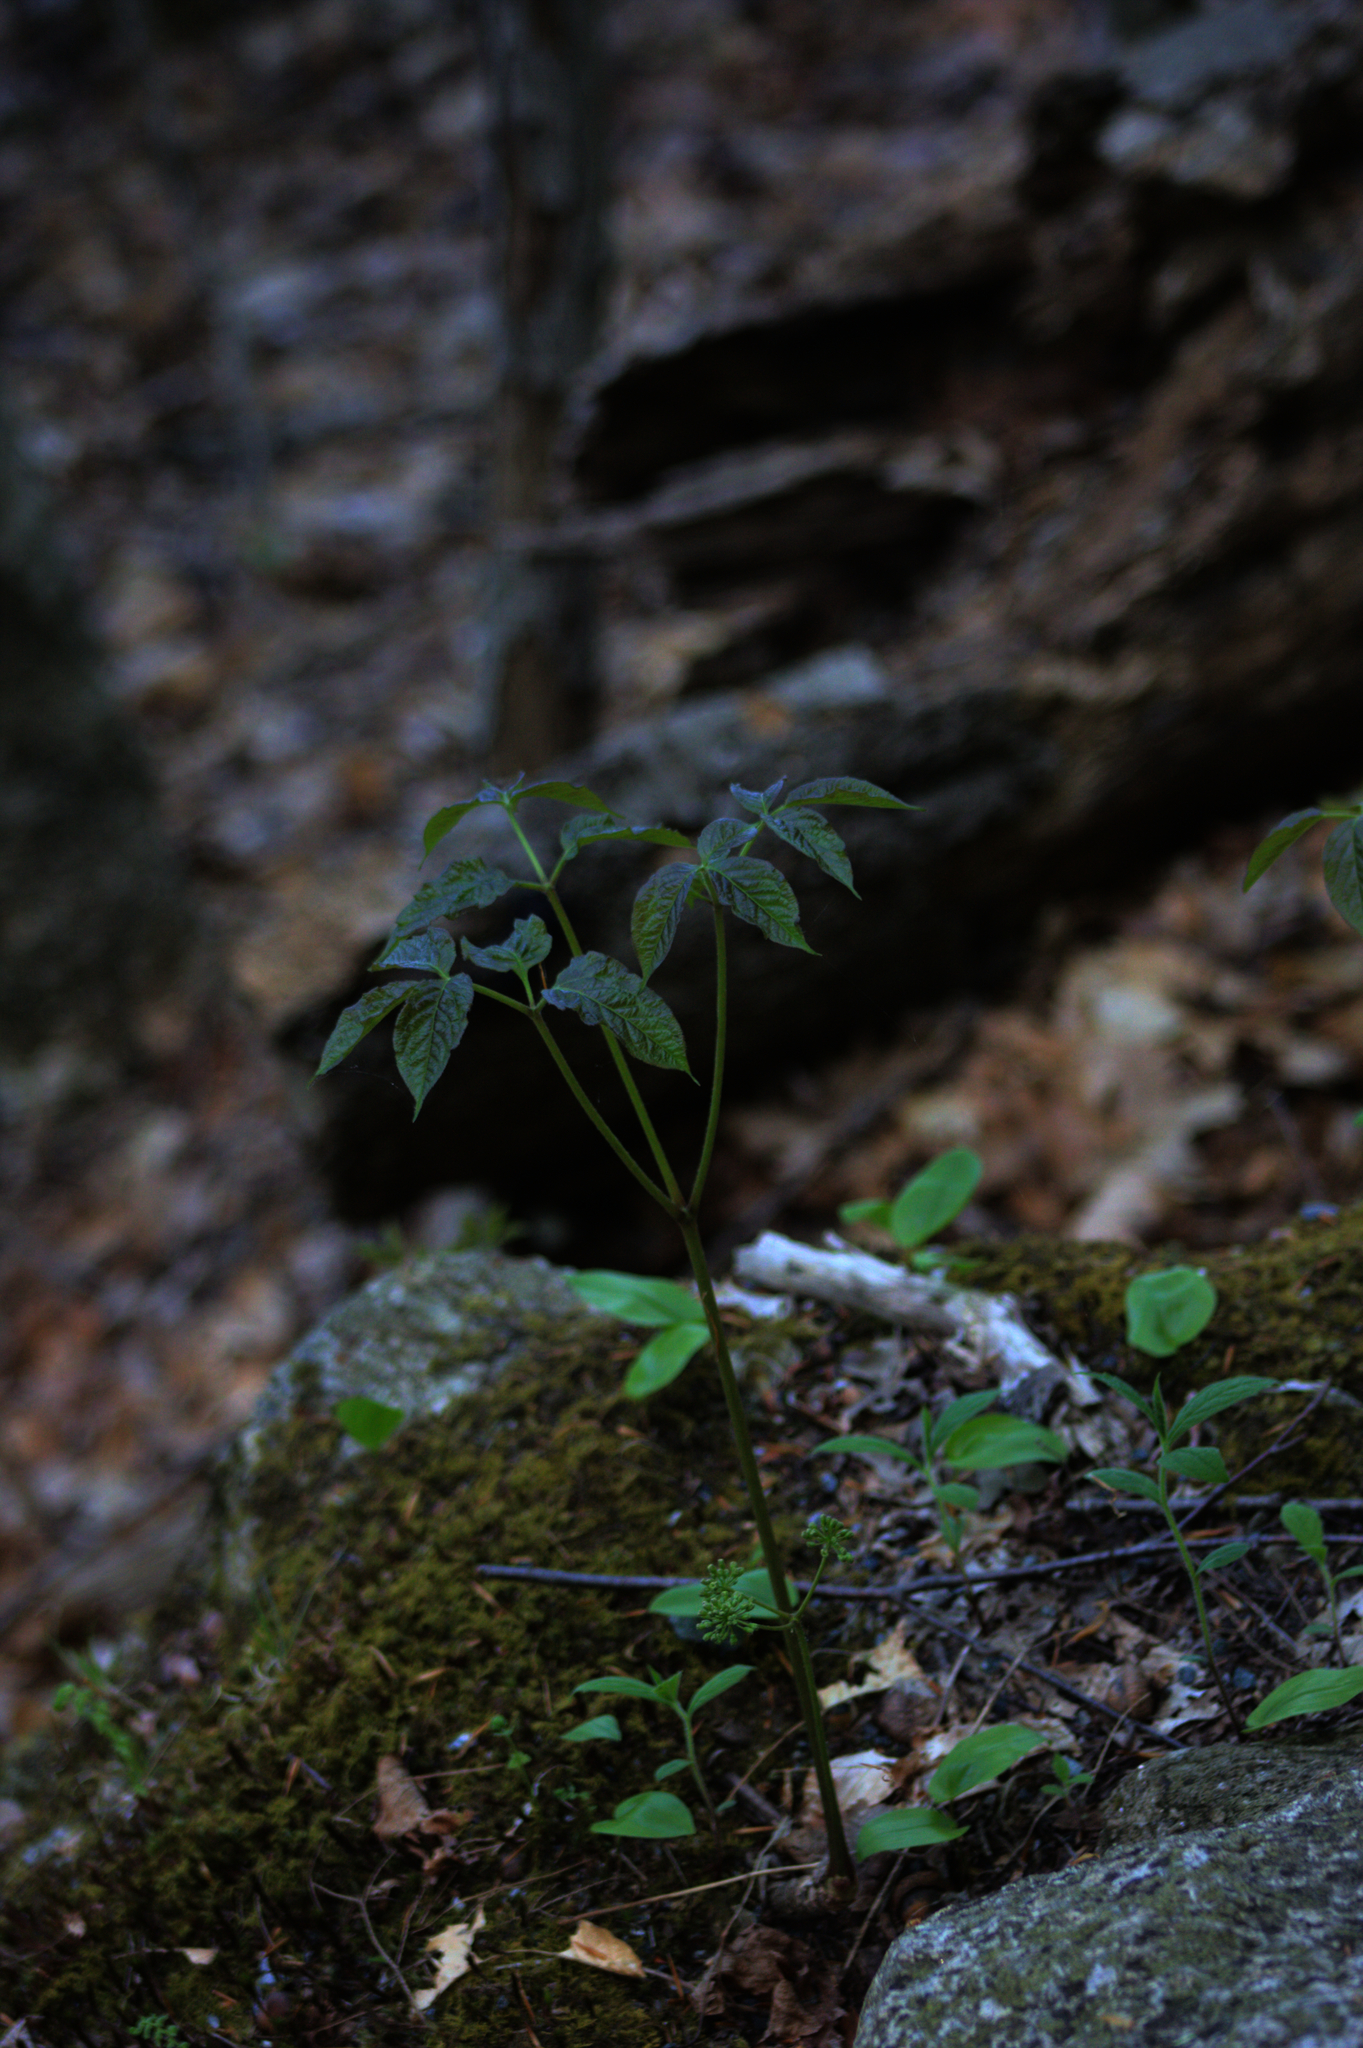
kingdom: Plantae
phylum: Tracheophyta
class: Magnoliopsida
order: Apiales
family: Araliaceae
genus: Aralia
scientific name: Aralia nudicaulis
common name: Wild sarsaparilla
